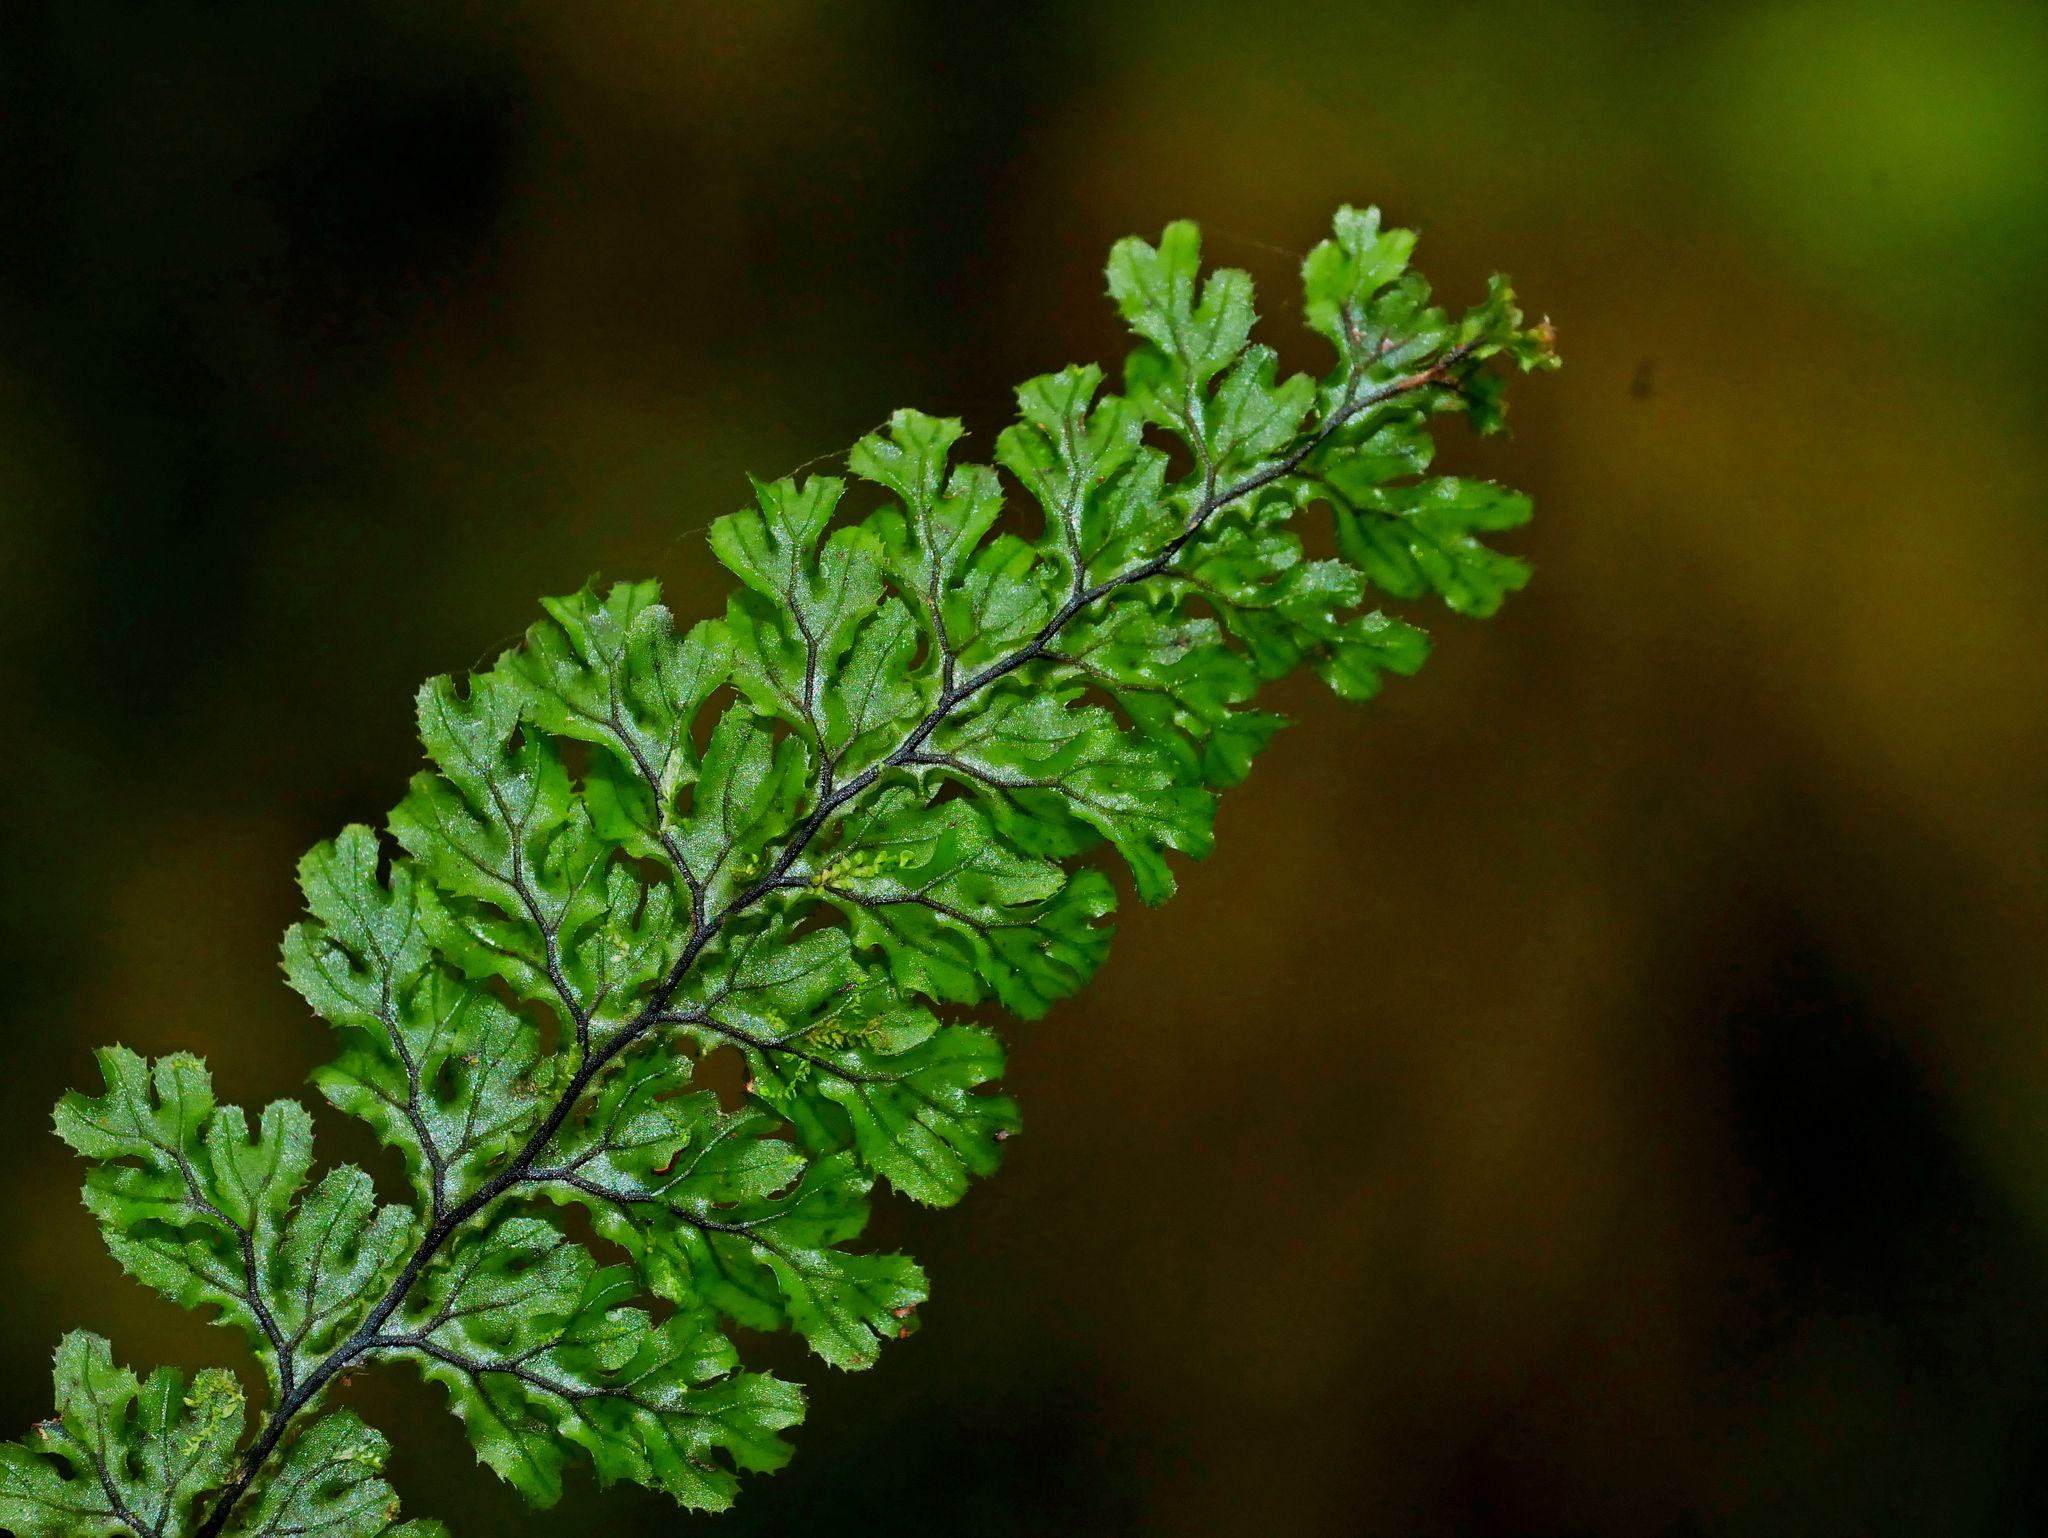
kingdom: Plantae
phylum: Tracheophyta
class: Polypodiopsida
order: Hymenophyllales
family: Hymenophyllaceae
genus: Hymenophyllum
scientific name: Hymenophyllum okadae
